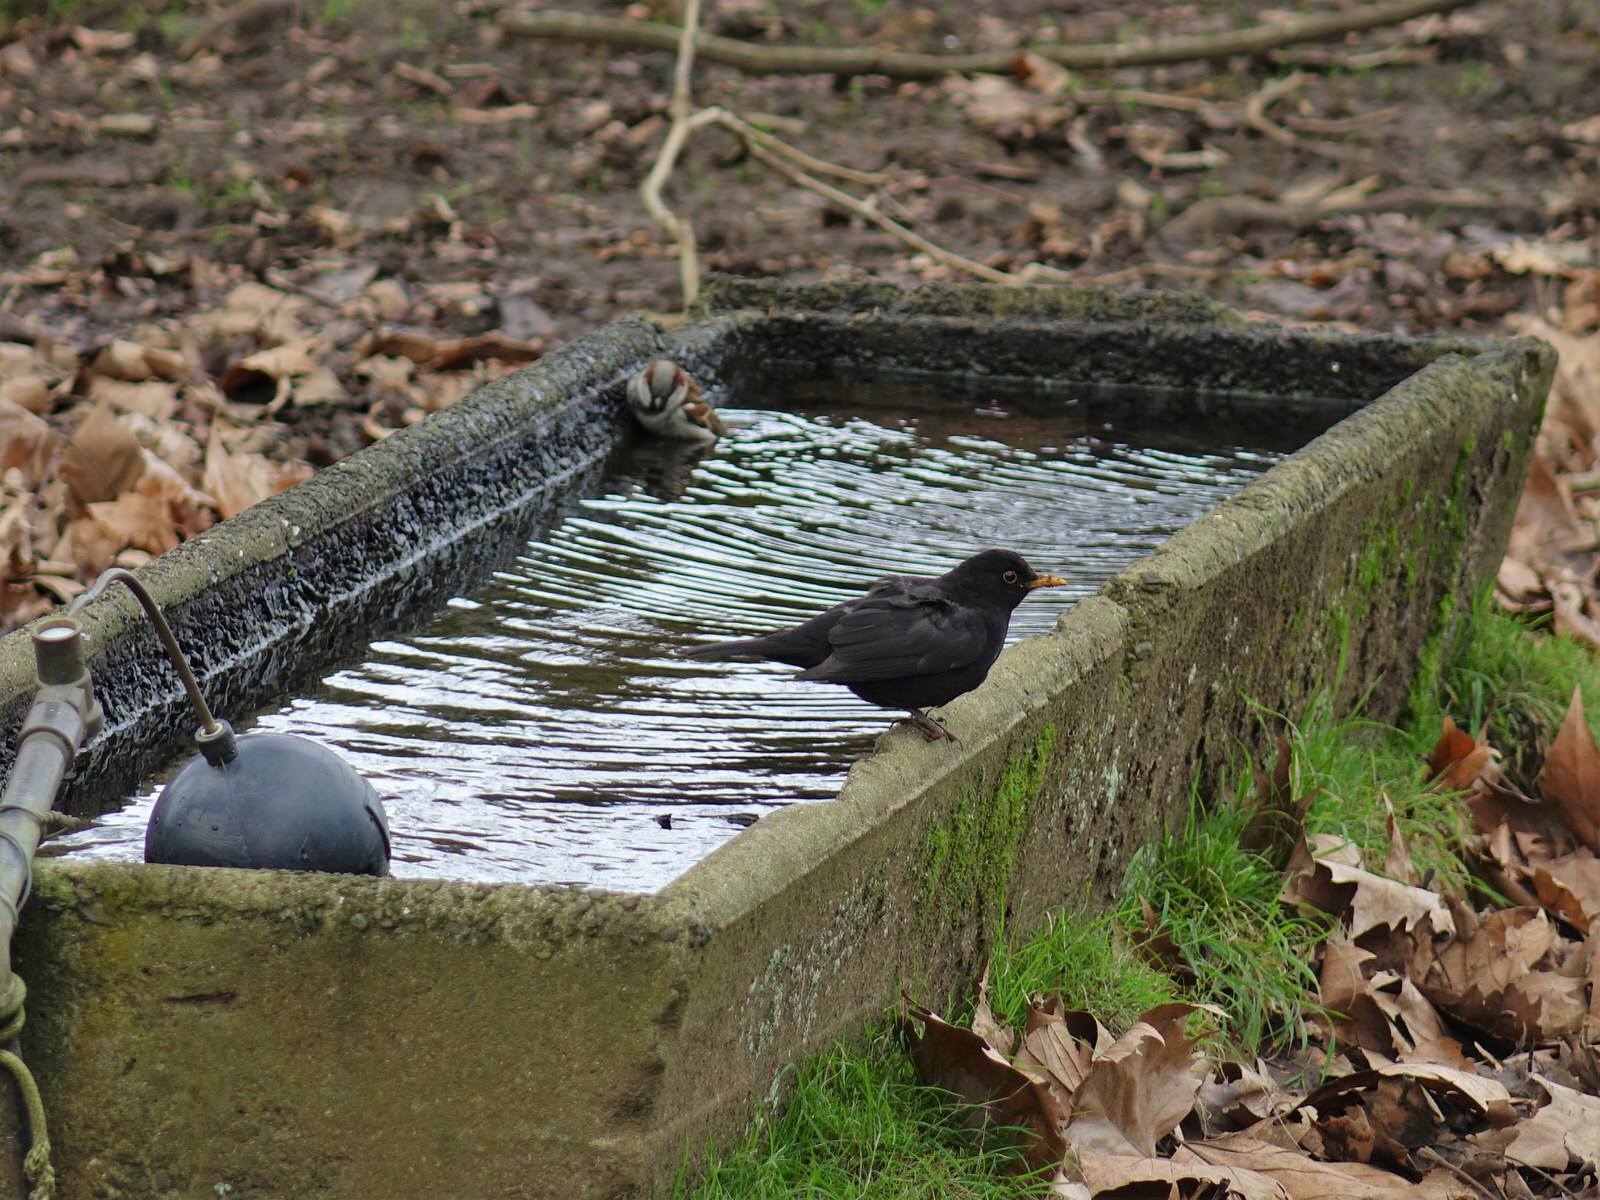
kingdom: Animalia
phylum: Chordata
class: Aves
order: Passeriformes
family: Turdidae
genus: Turdus
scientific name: Turdus merula
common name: Common blackbird
